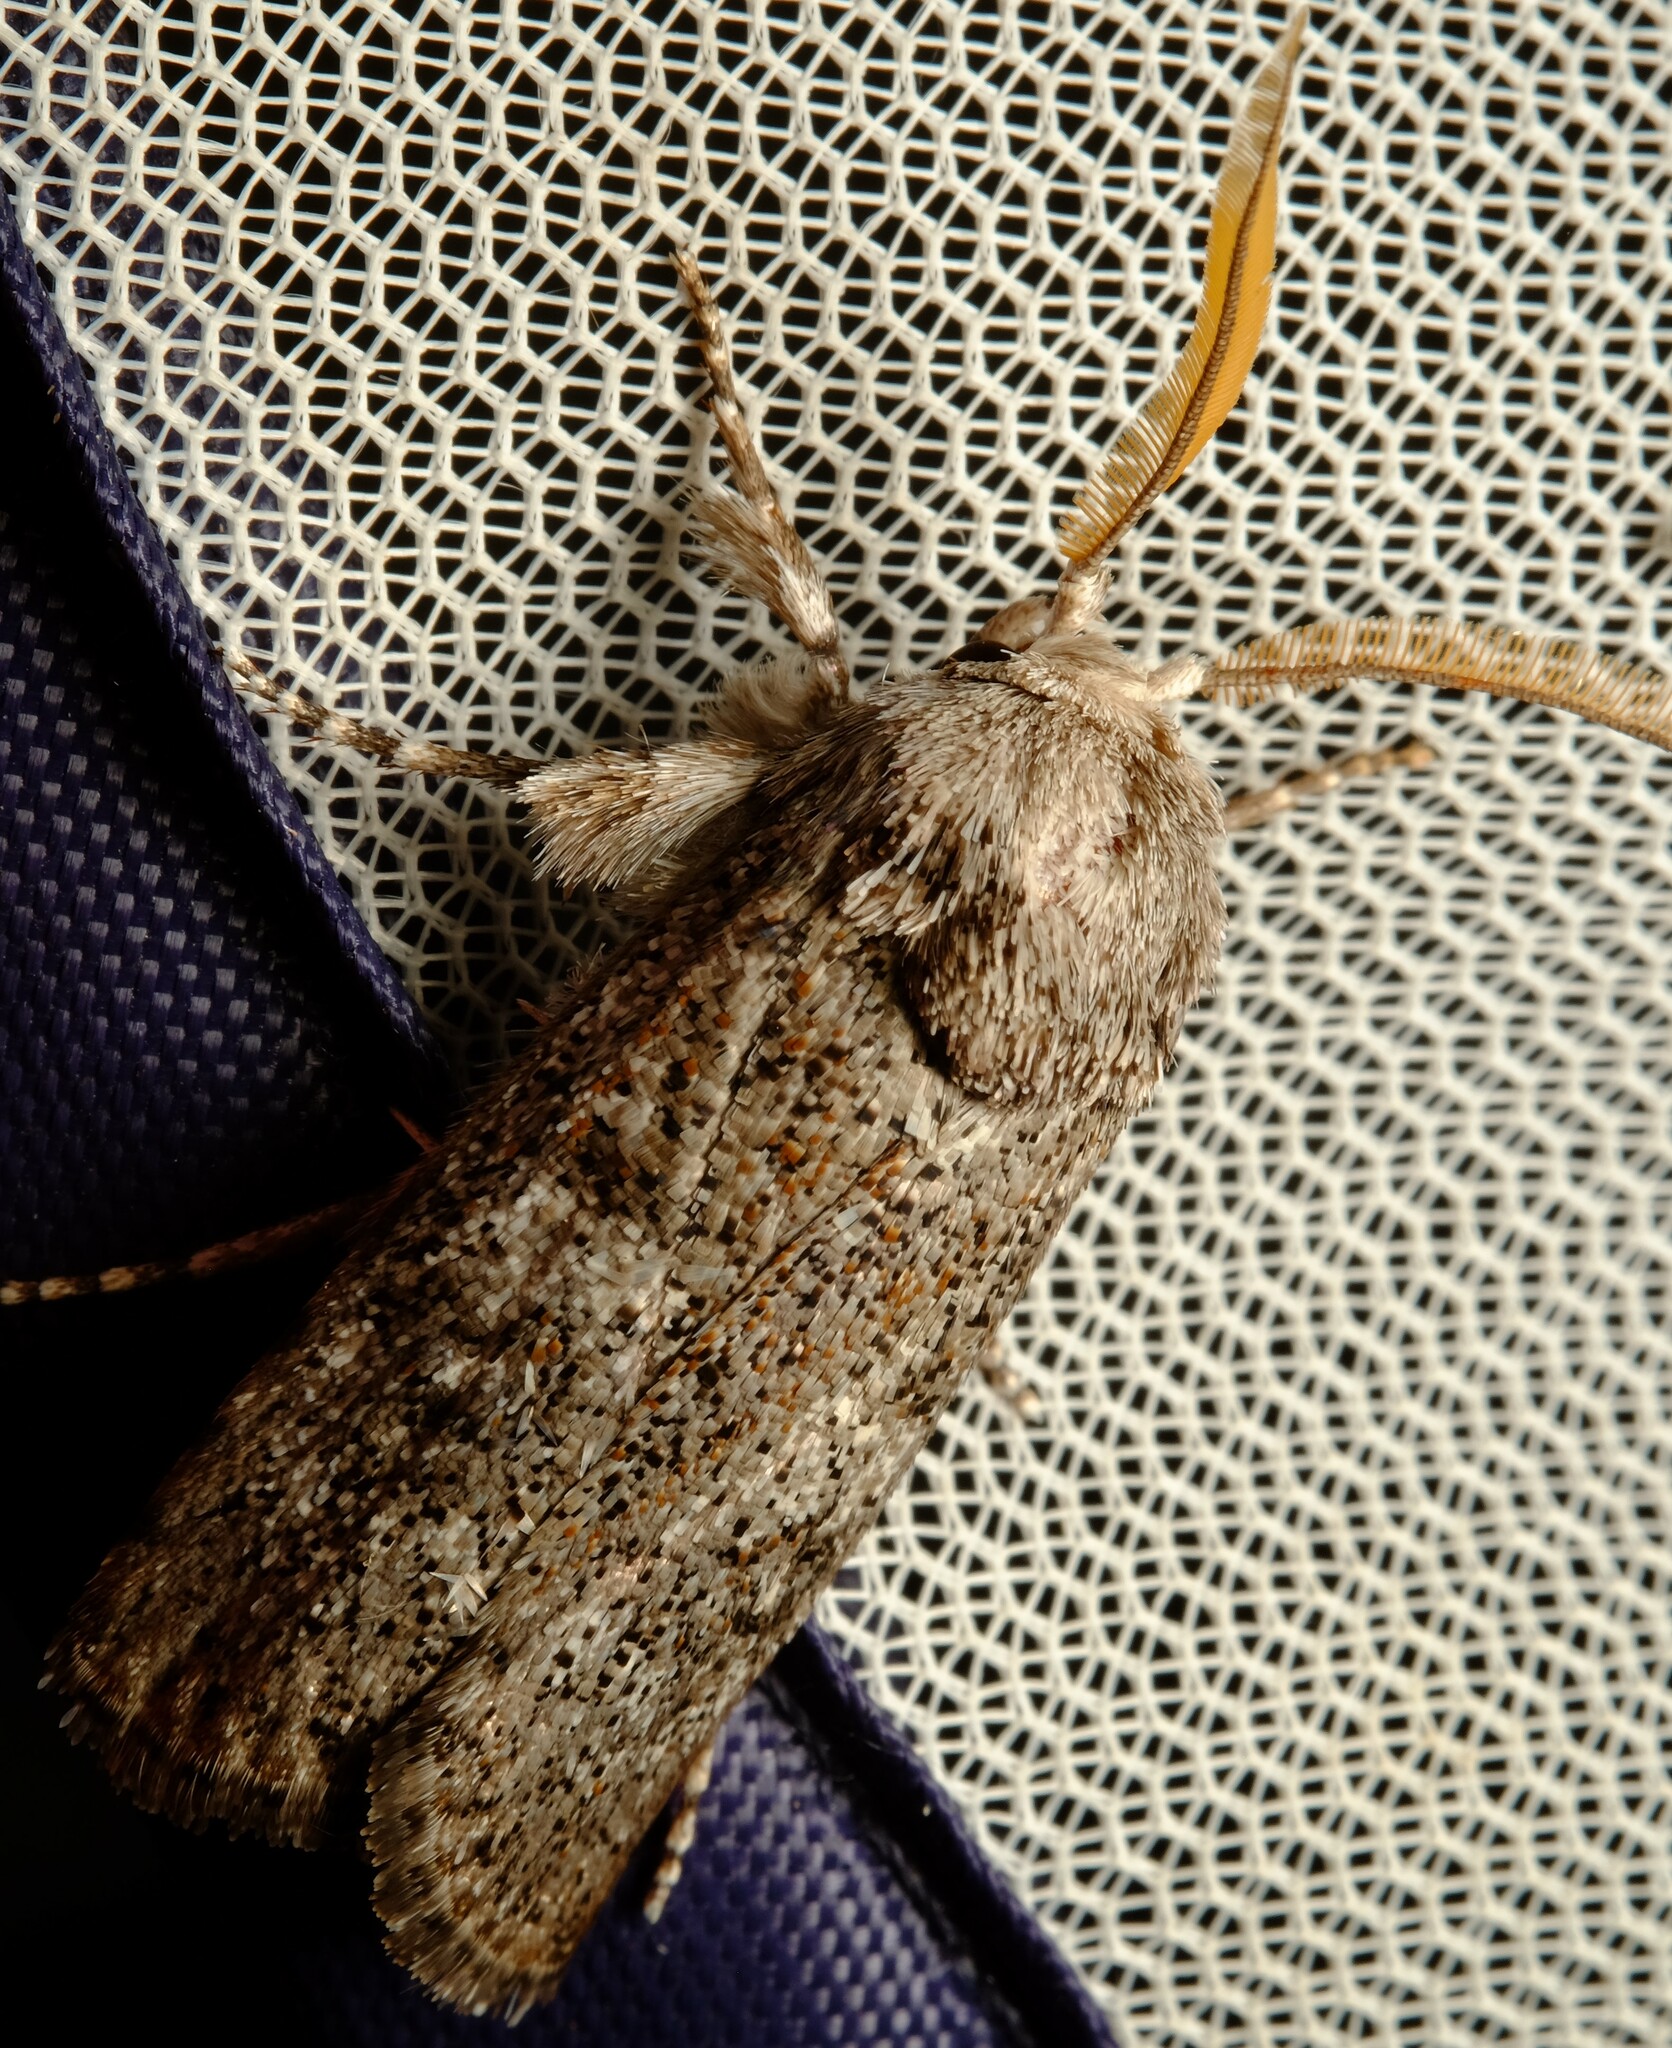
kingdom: Animalia
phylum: Arthropoda
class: Insecta
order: Lepidoptera
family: Xyloryctidae
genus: Cryptophasa
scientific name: Cryptophasa irrorata
